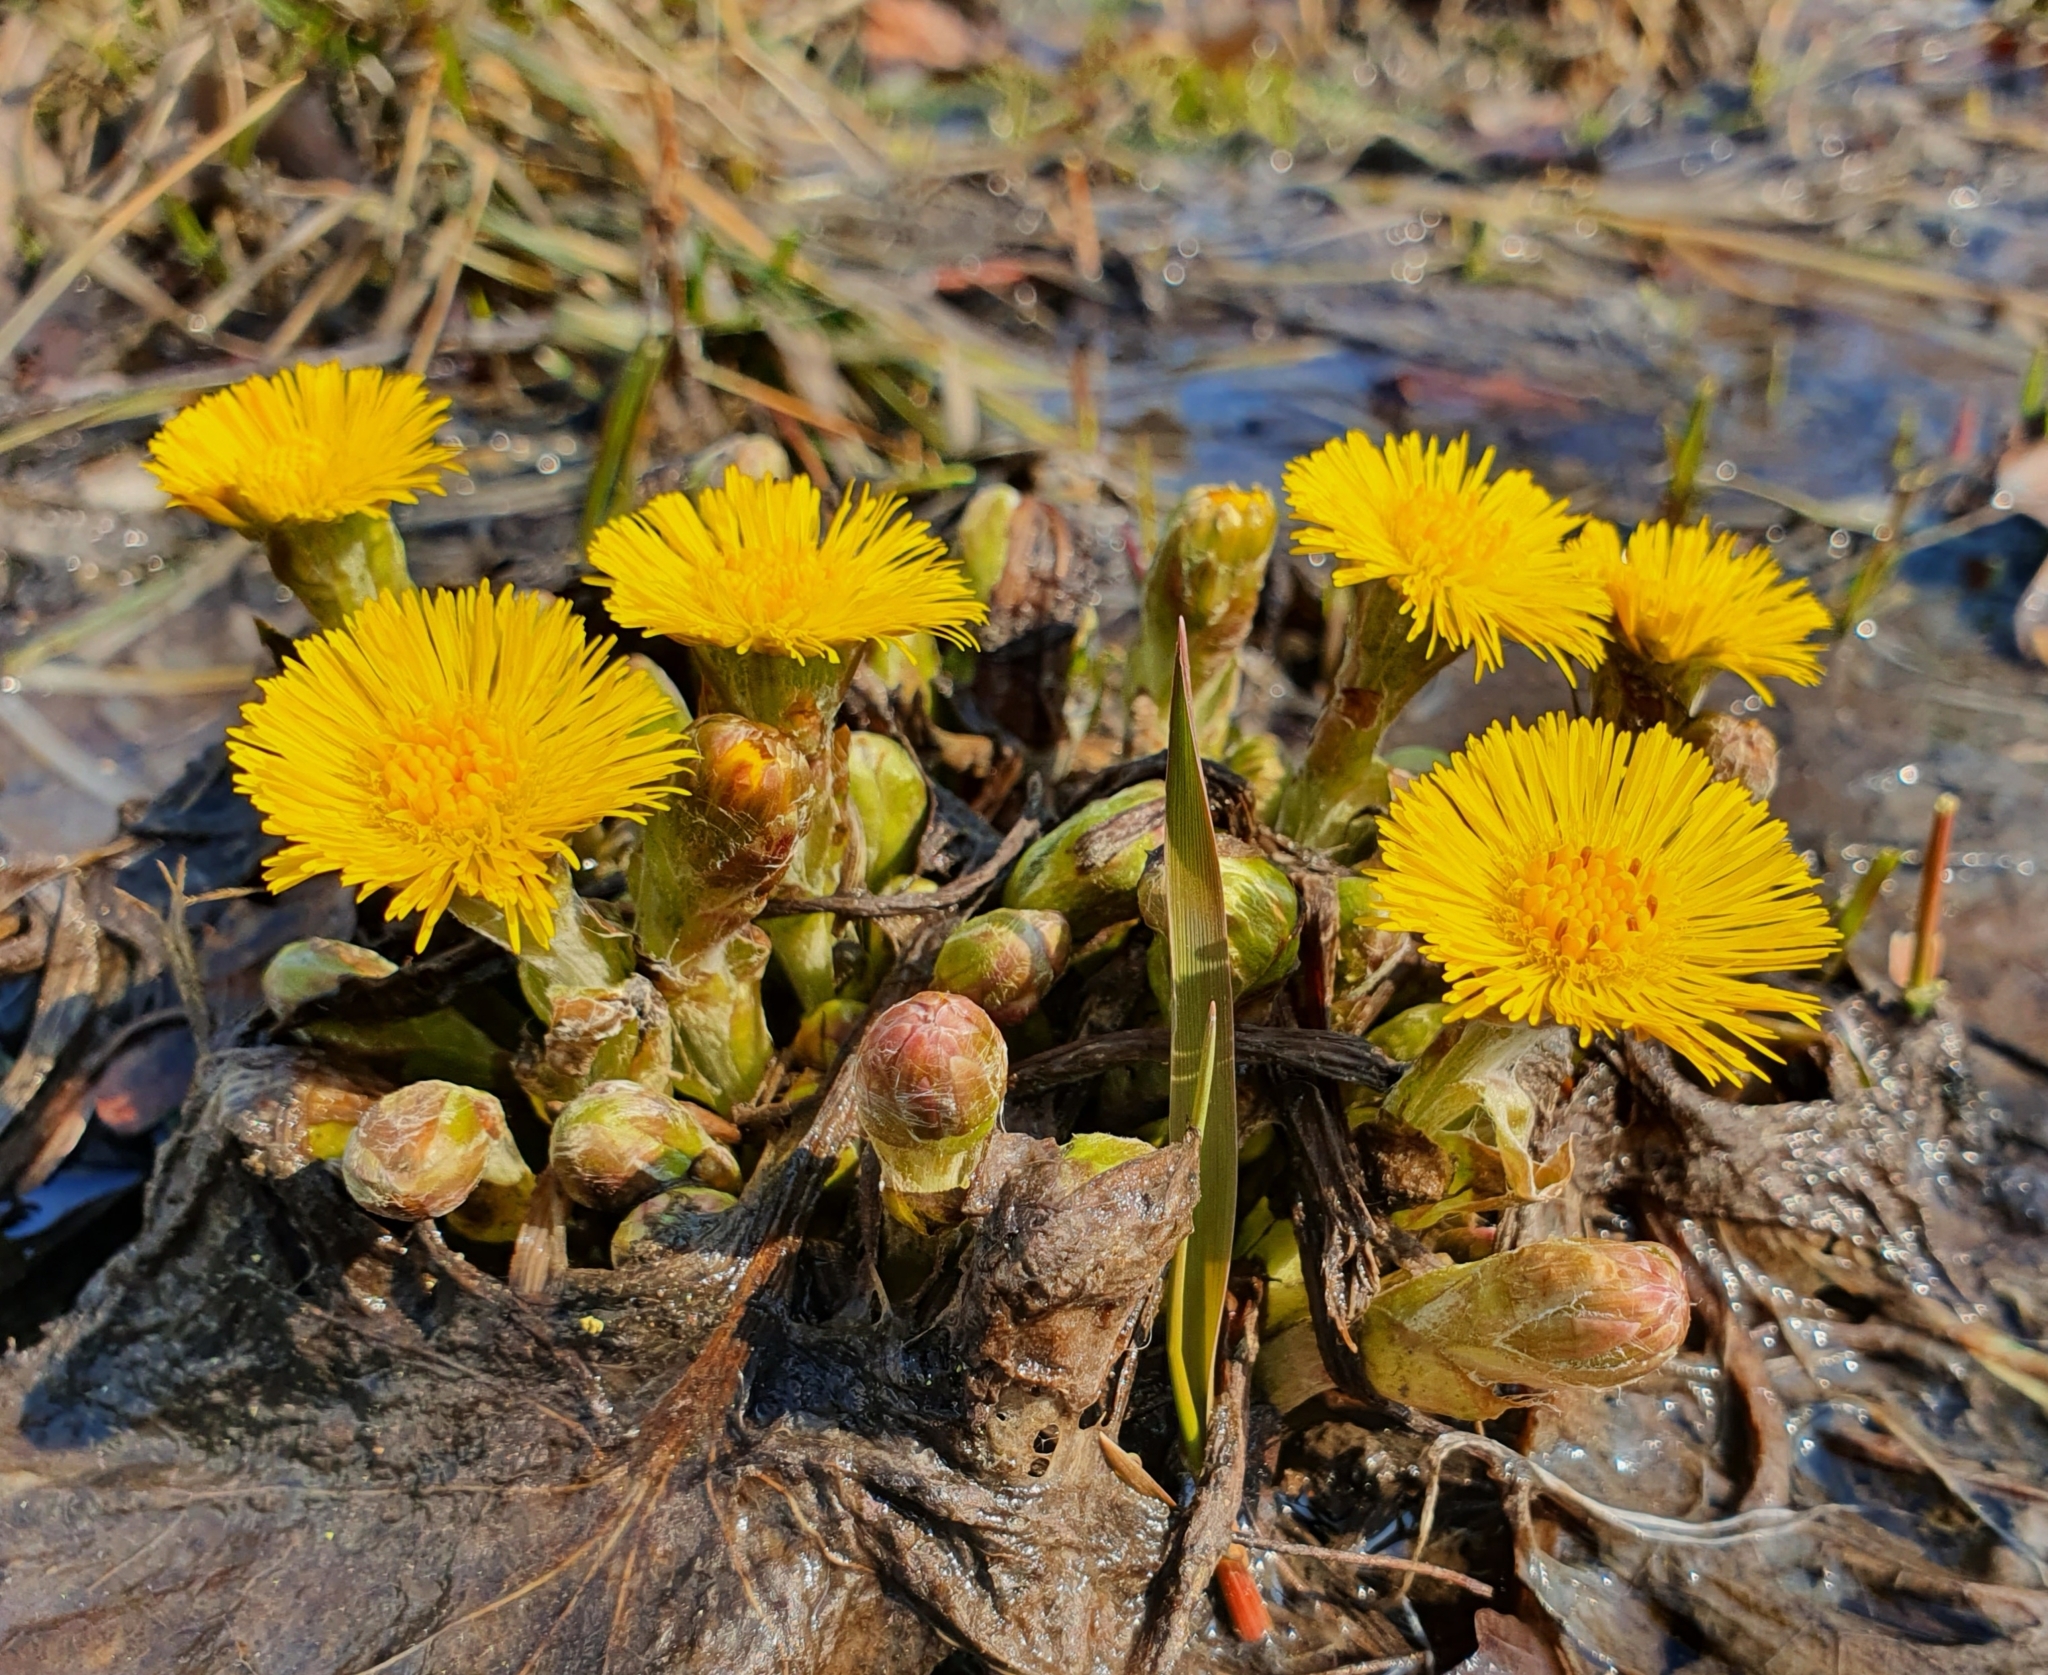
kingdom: Plantae
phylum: Tracheophyta
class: Magnoliopsida
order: Asterales
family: Asteraceae
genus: Tussilago
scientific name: Tussilago farfara
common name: Coltsfoot
